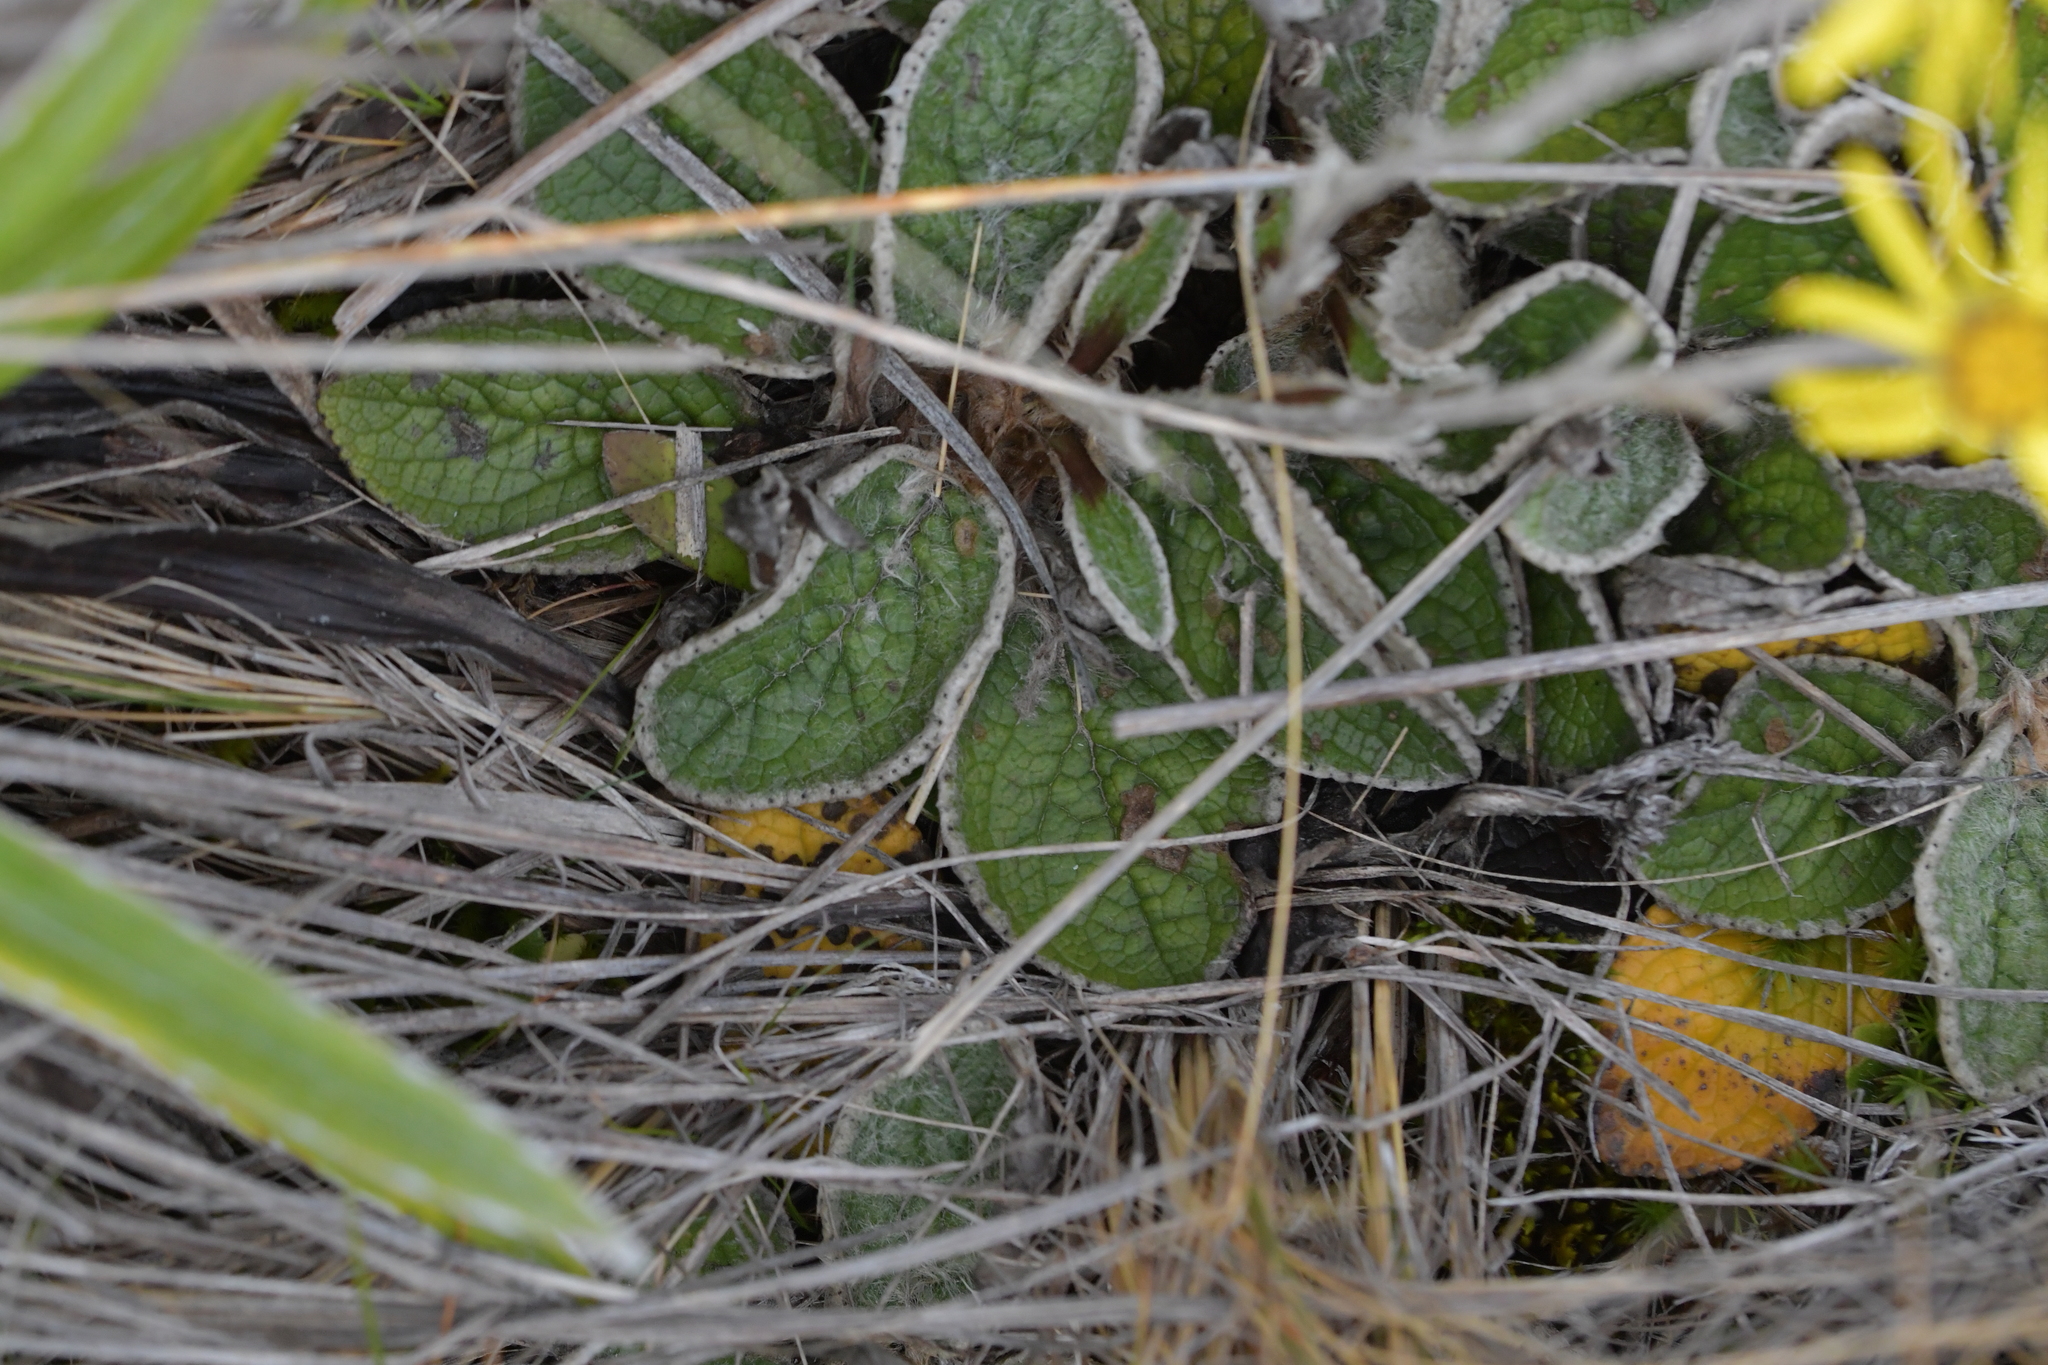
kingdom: Plantae
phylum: Tracheophyta
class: Magnoliopsida
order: Asterales
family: Asteraceae
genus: Brachyglottis
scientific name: Brachyglottis lagopus
